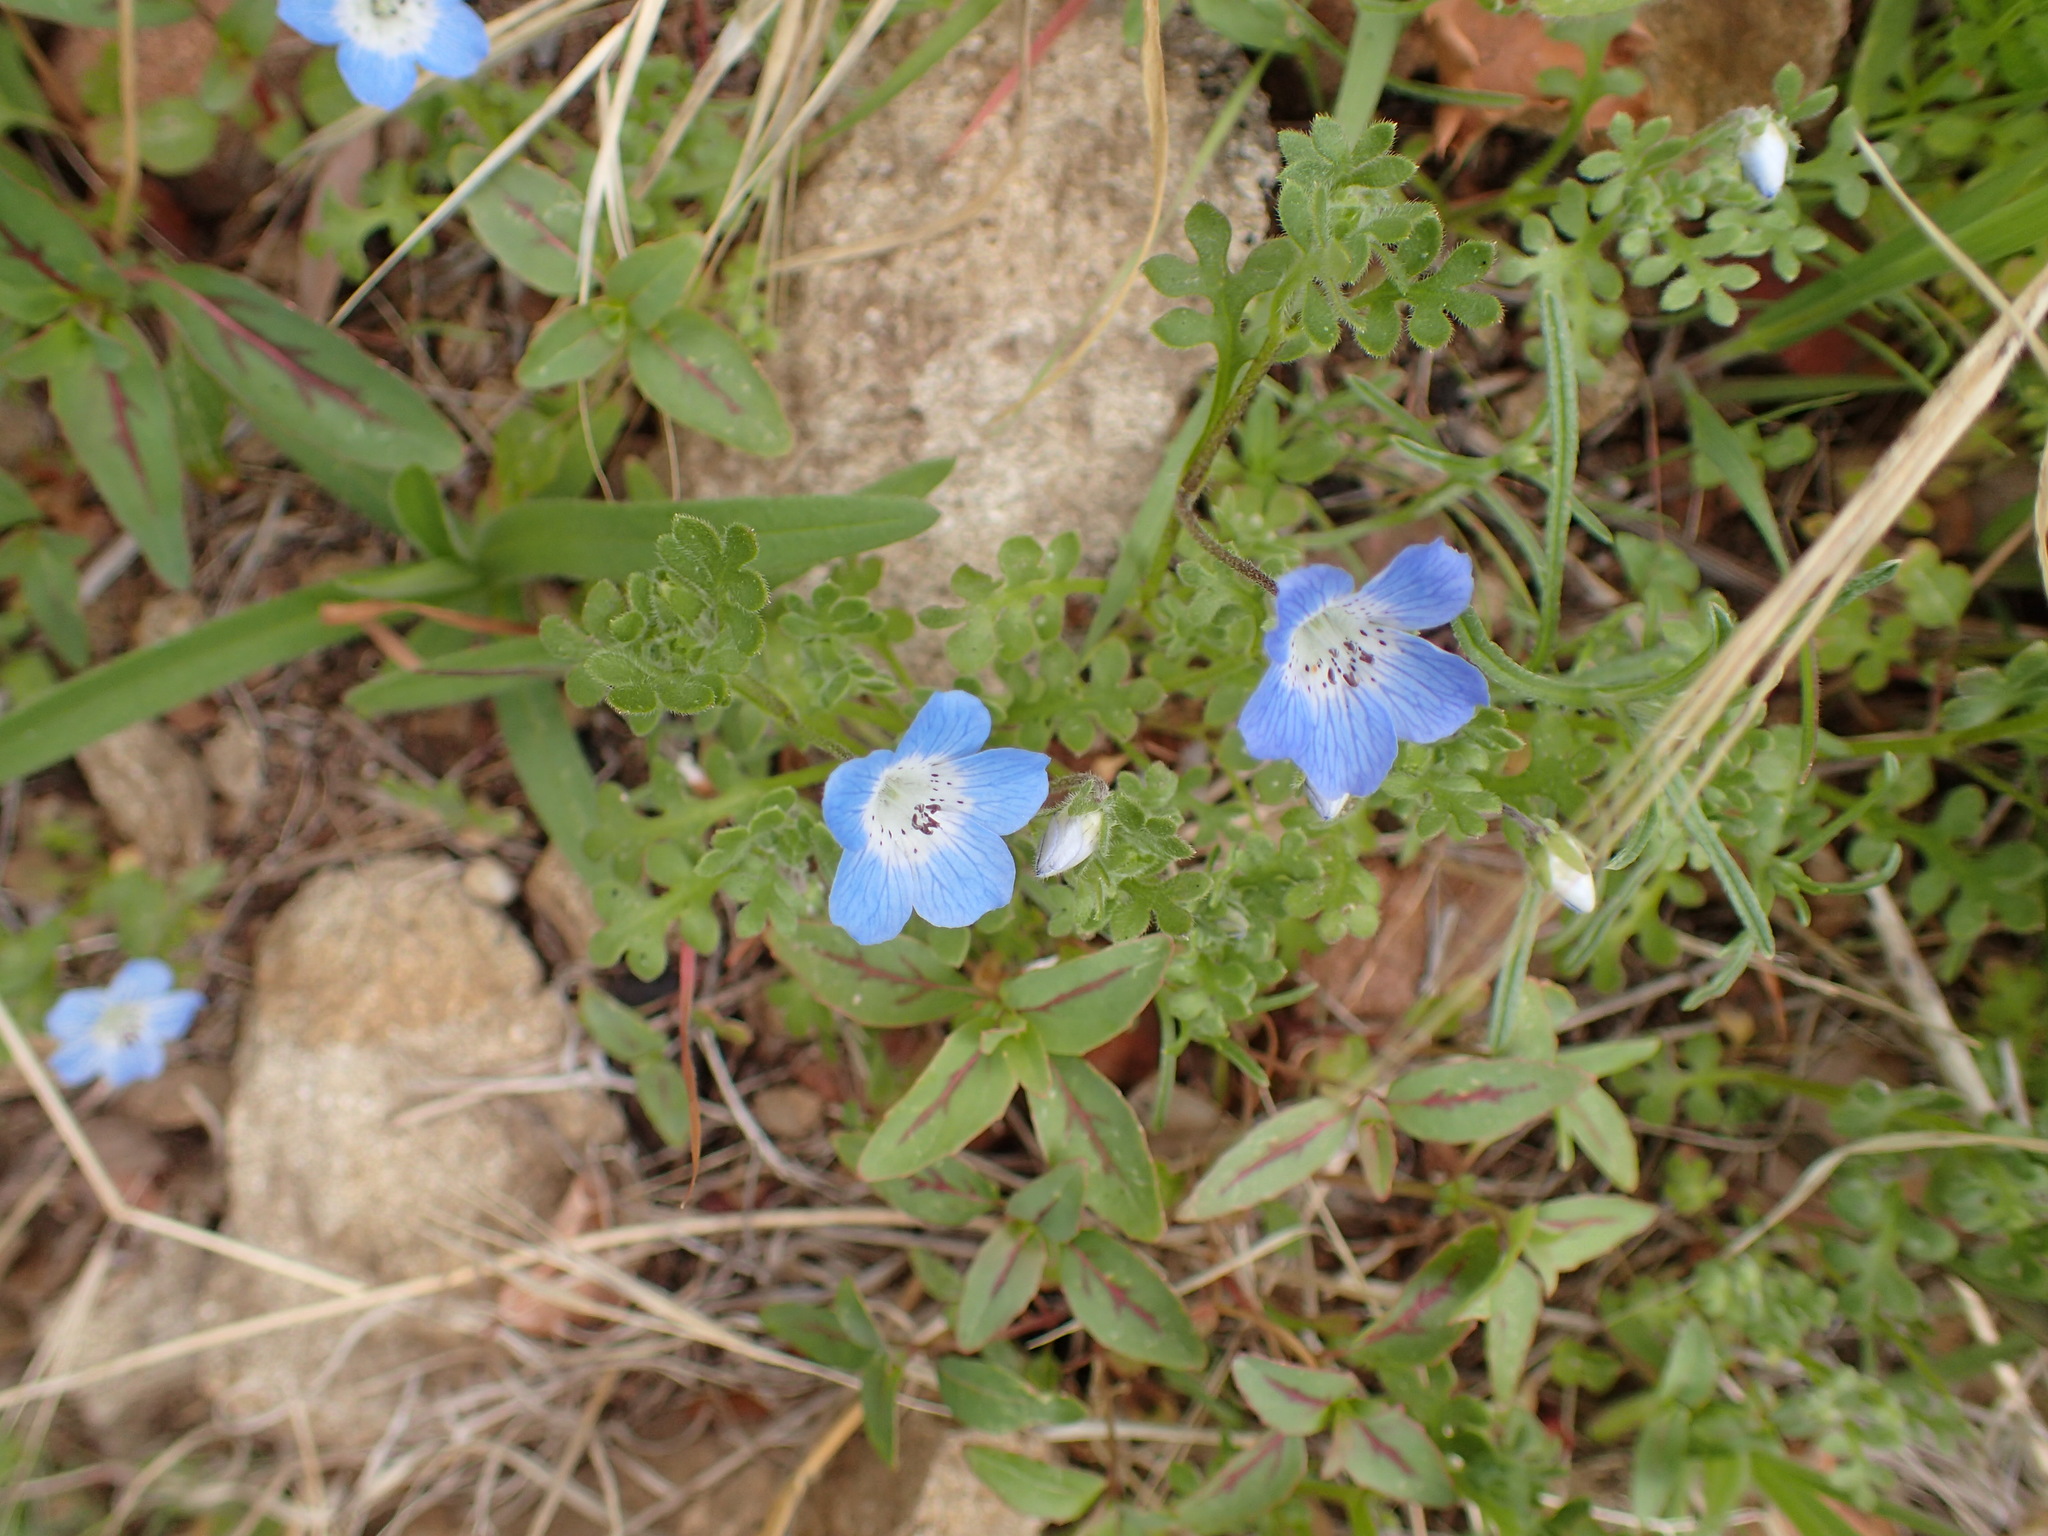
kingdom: Plantae
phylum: Tracheophyta
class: Magnoliopsida
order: Boraginales
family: Hydrophyllaceae
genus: Nemophila
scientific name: Nemophila menziesii
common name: Baby's-blue-eyes
